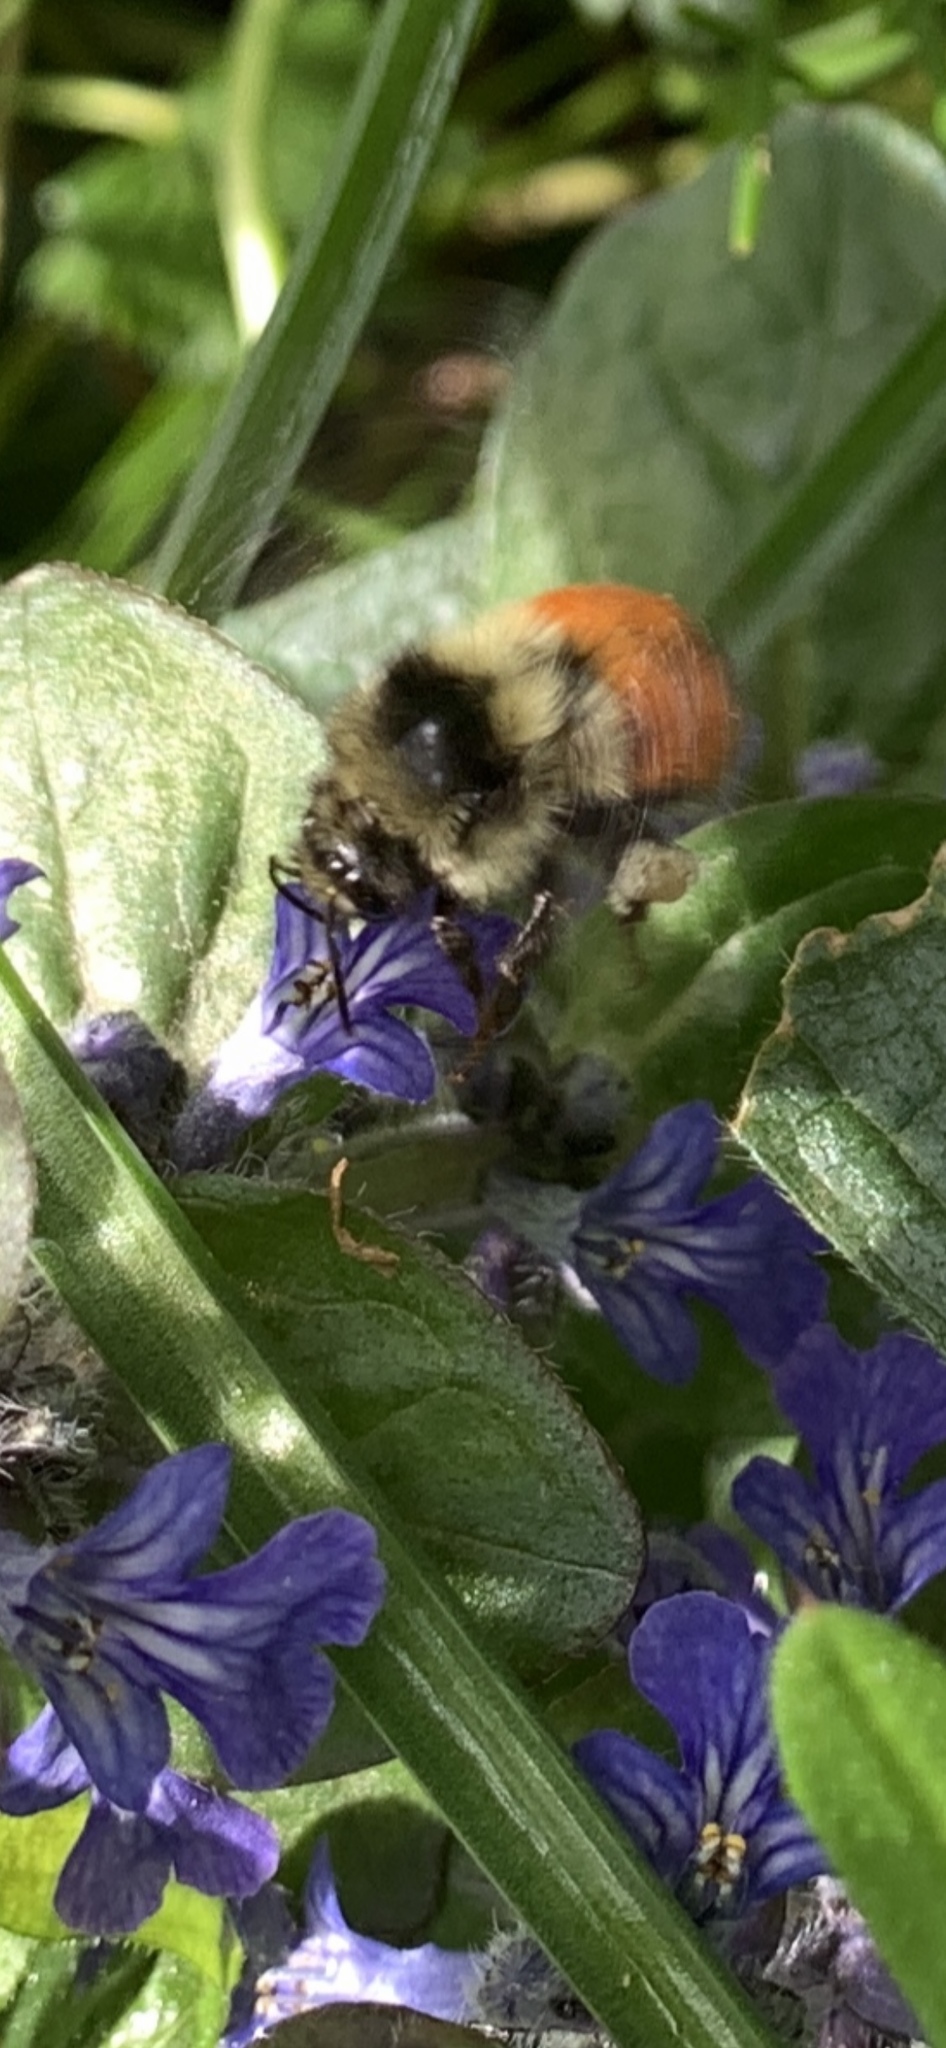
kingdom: Animalia
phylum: Arthropoda
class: Insecta
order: Hymenoptera
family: Apidae
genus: Bombus
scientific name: Bombus melanopygus
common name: Black tail bumble bee
